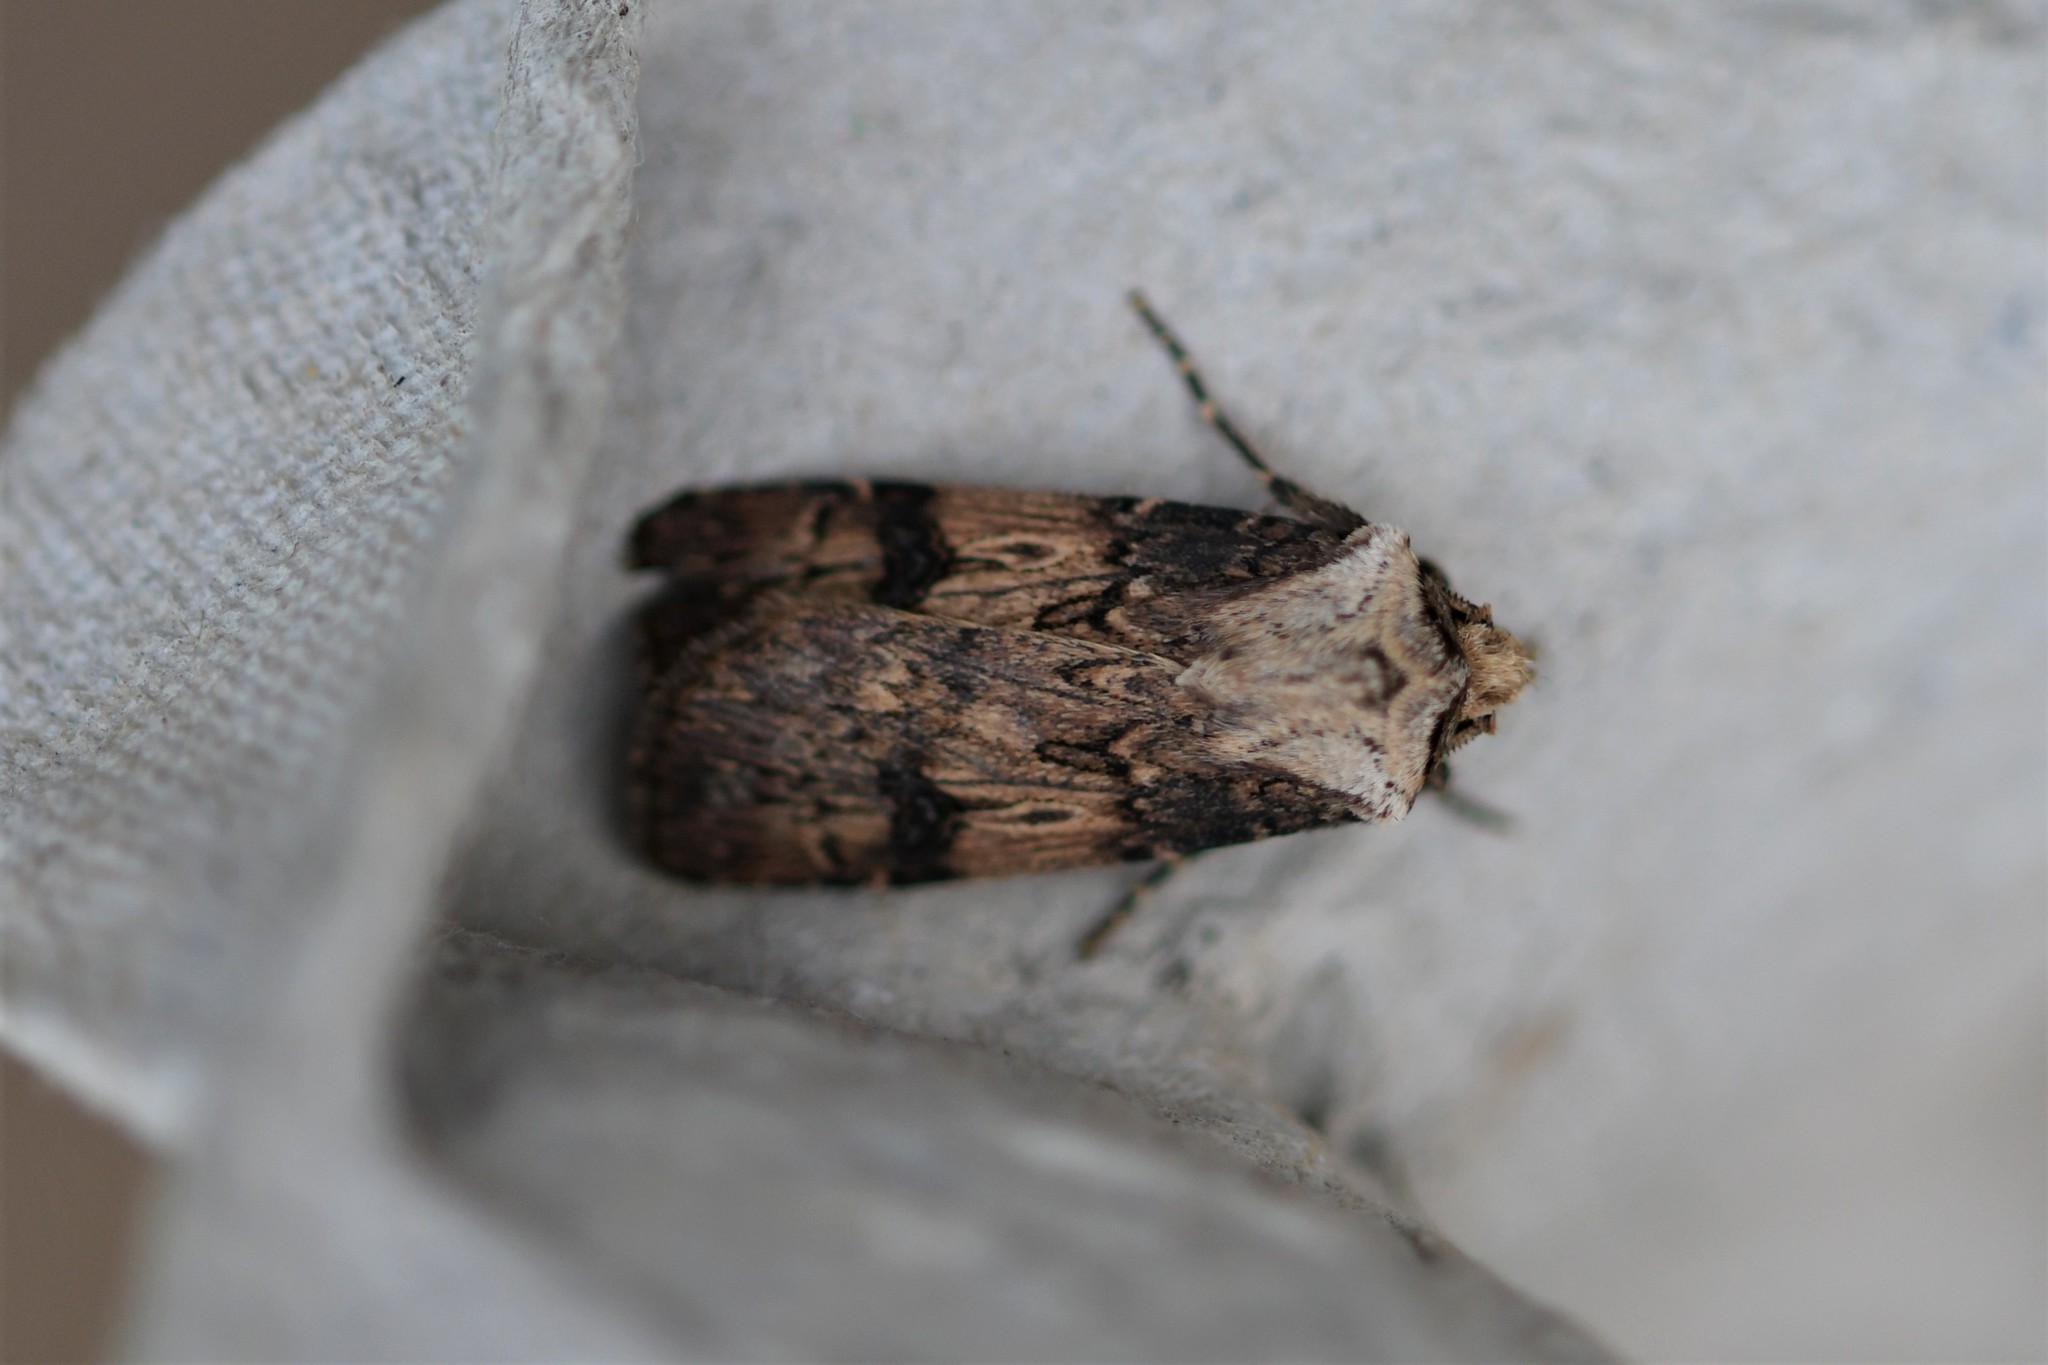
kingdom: Animalia
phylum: Arthropoda
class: Insecta
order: Lepidoptera
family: Noctuidae
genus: Agrotis
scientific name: Agrotis puta
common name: Shuttle-shaped dart
